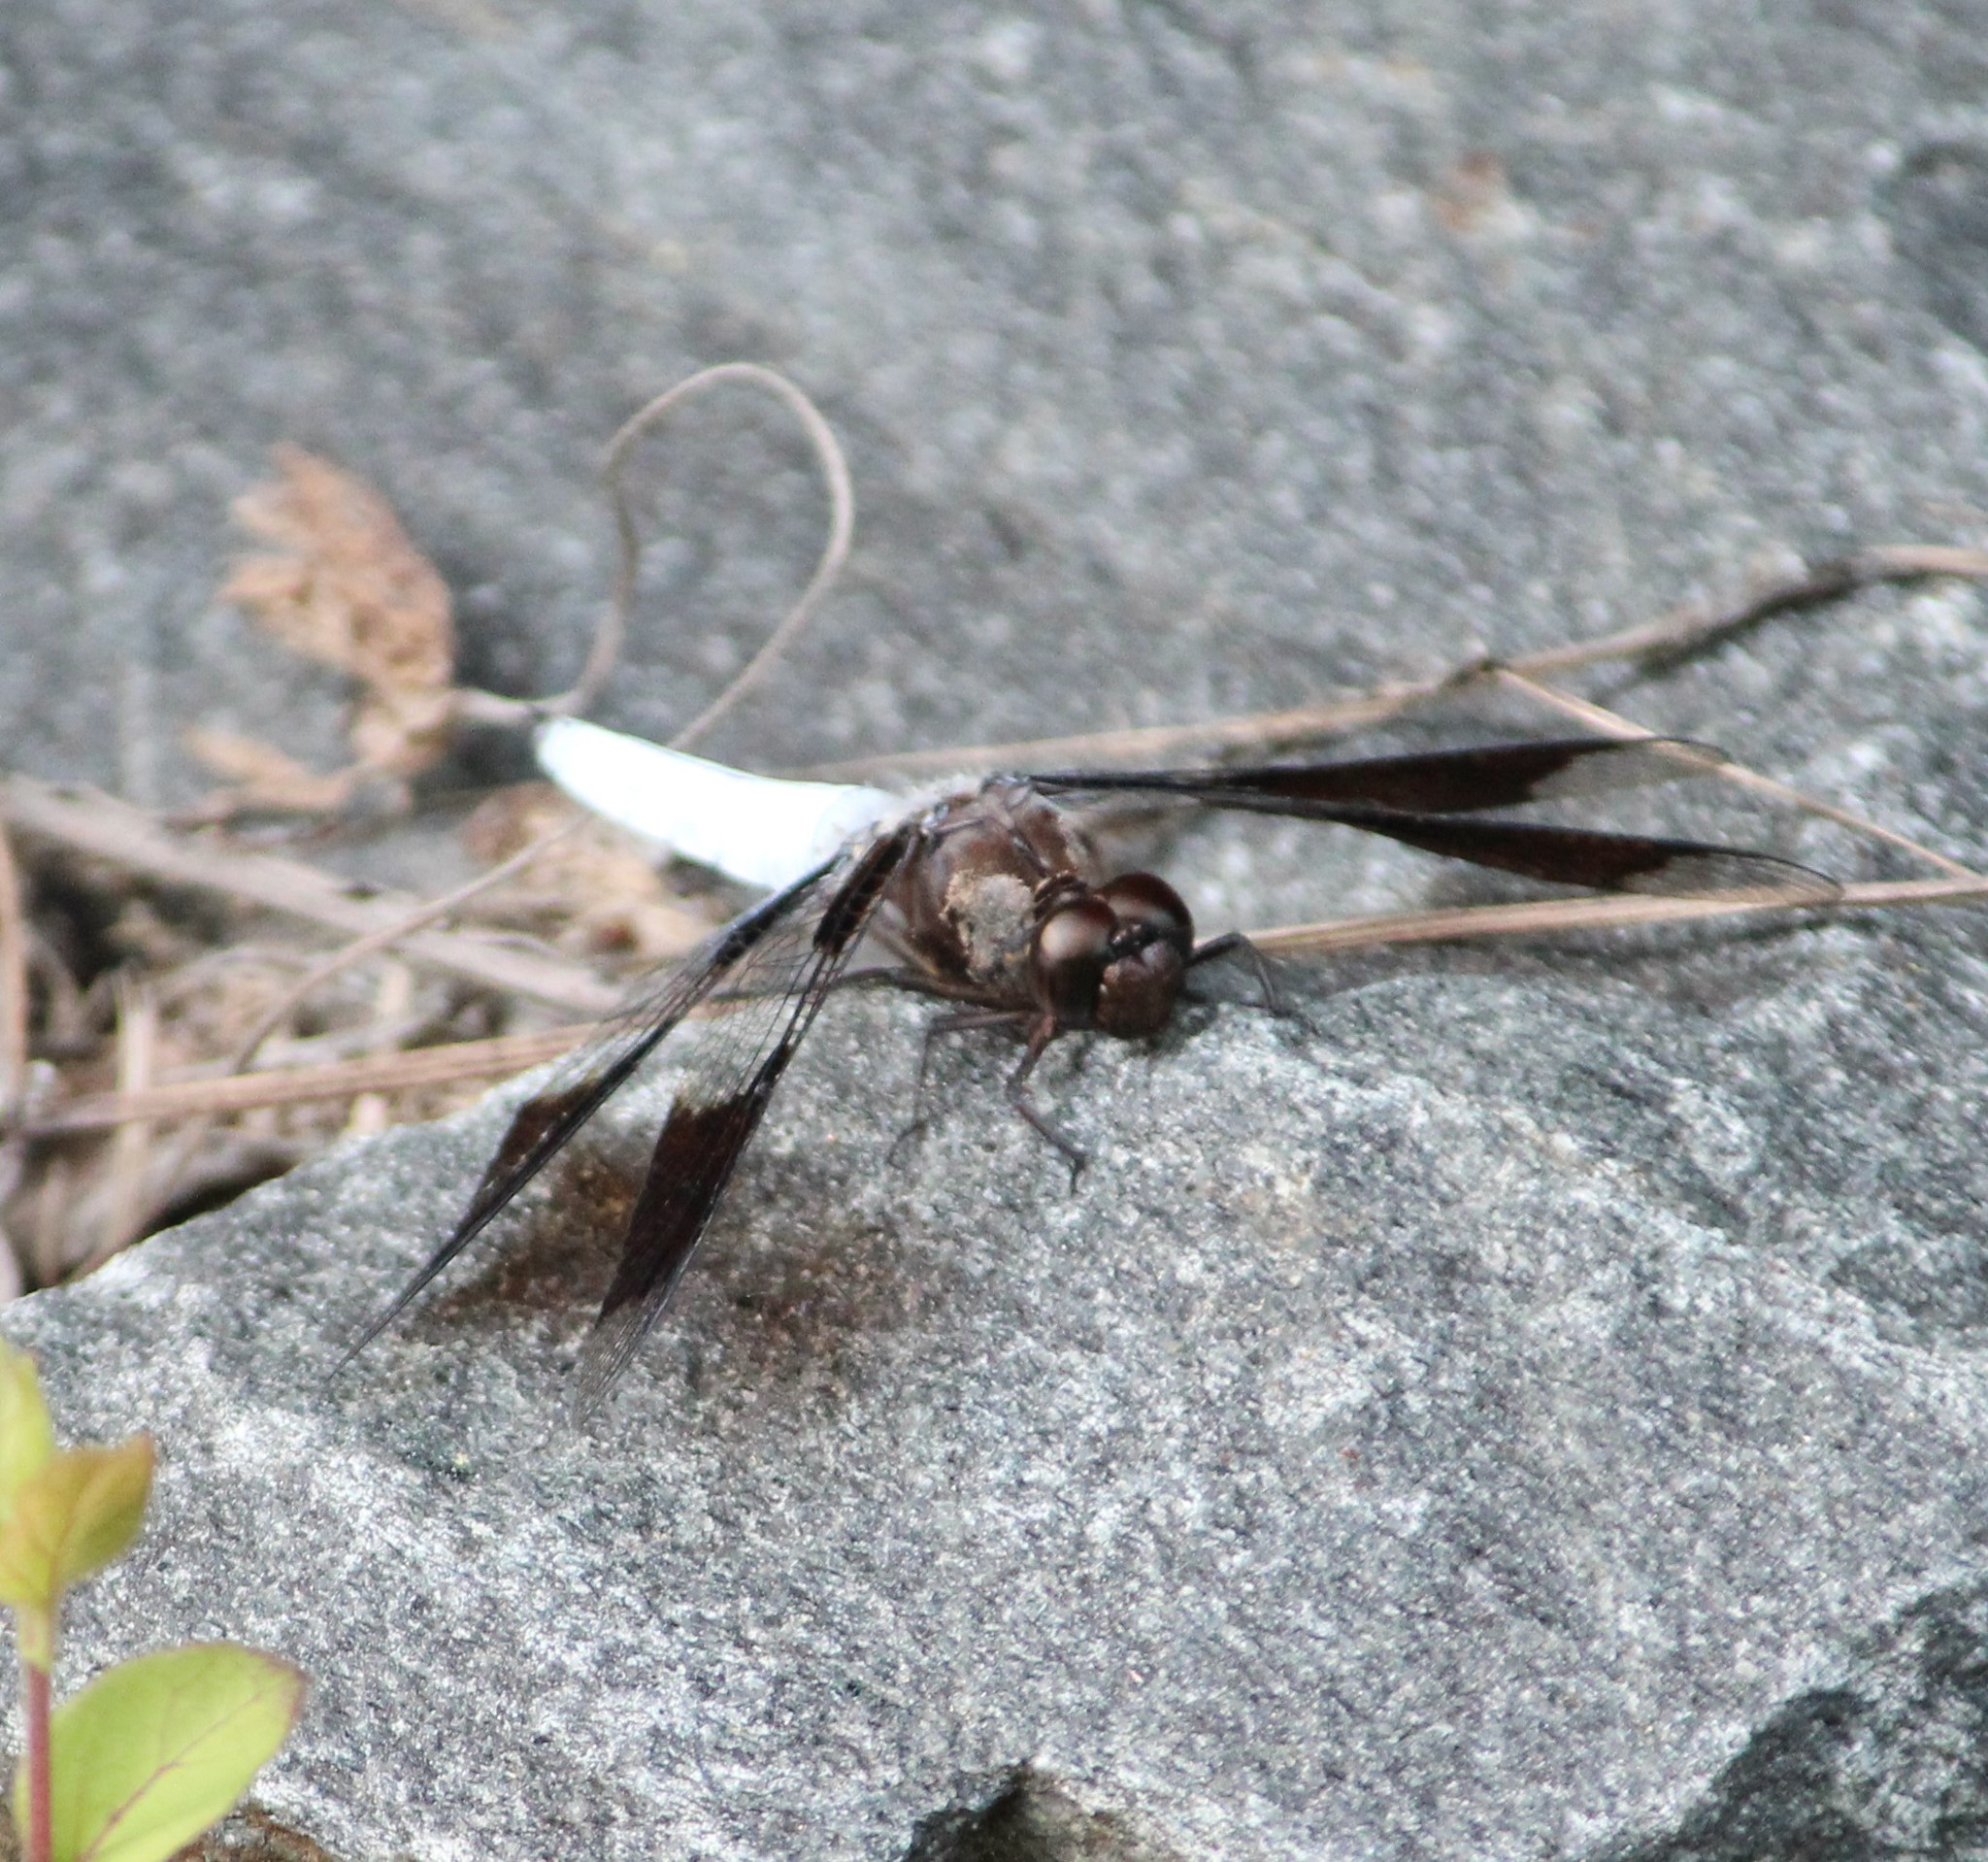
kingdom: Animalia
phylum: Arthropoda
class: Insecta
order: Odonata
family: Libellulidae
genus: Plathemis
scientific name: Plathemis lydia
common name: Common whitetail
